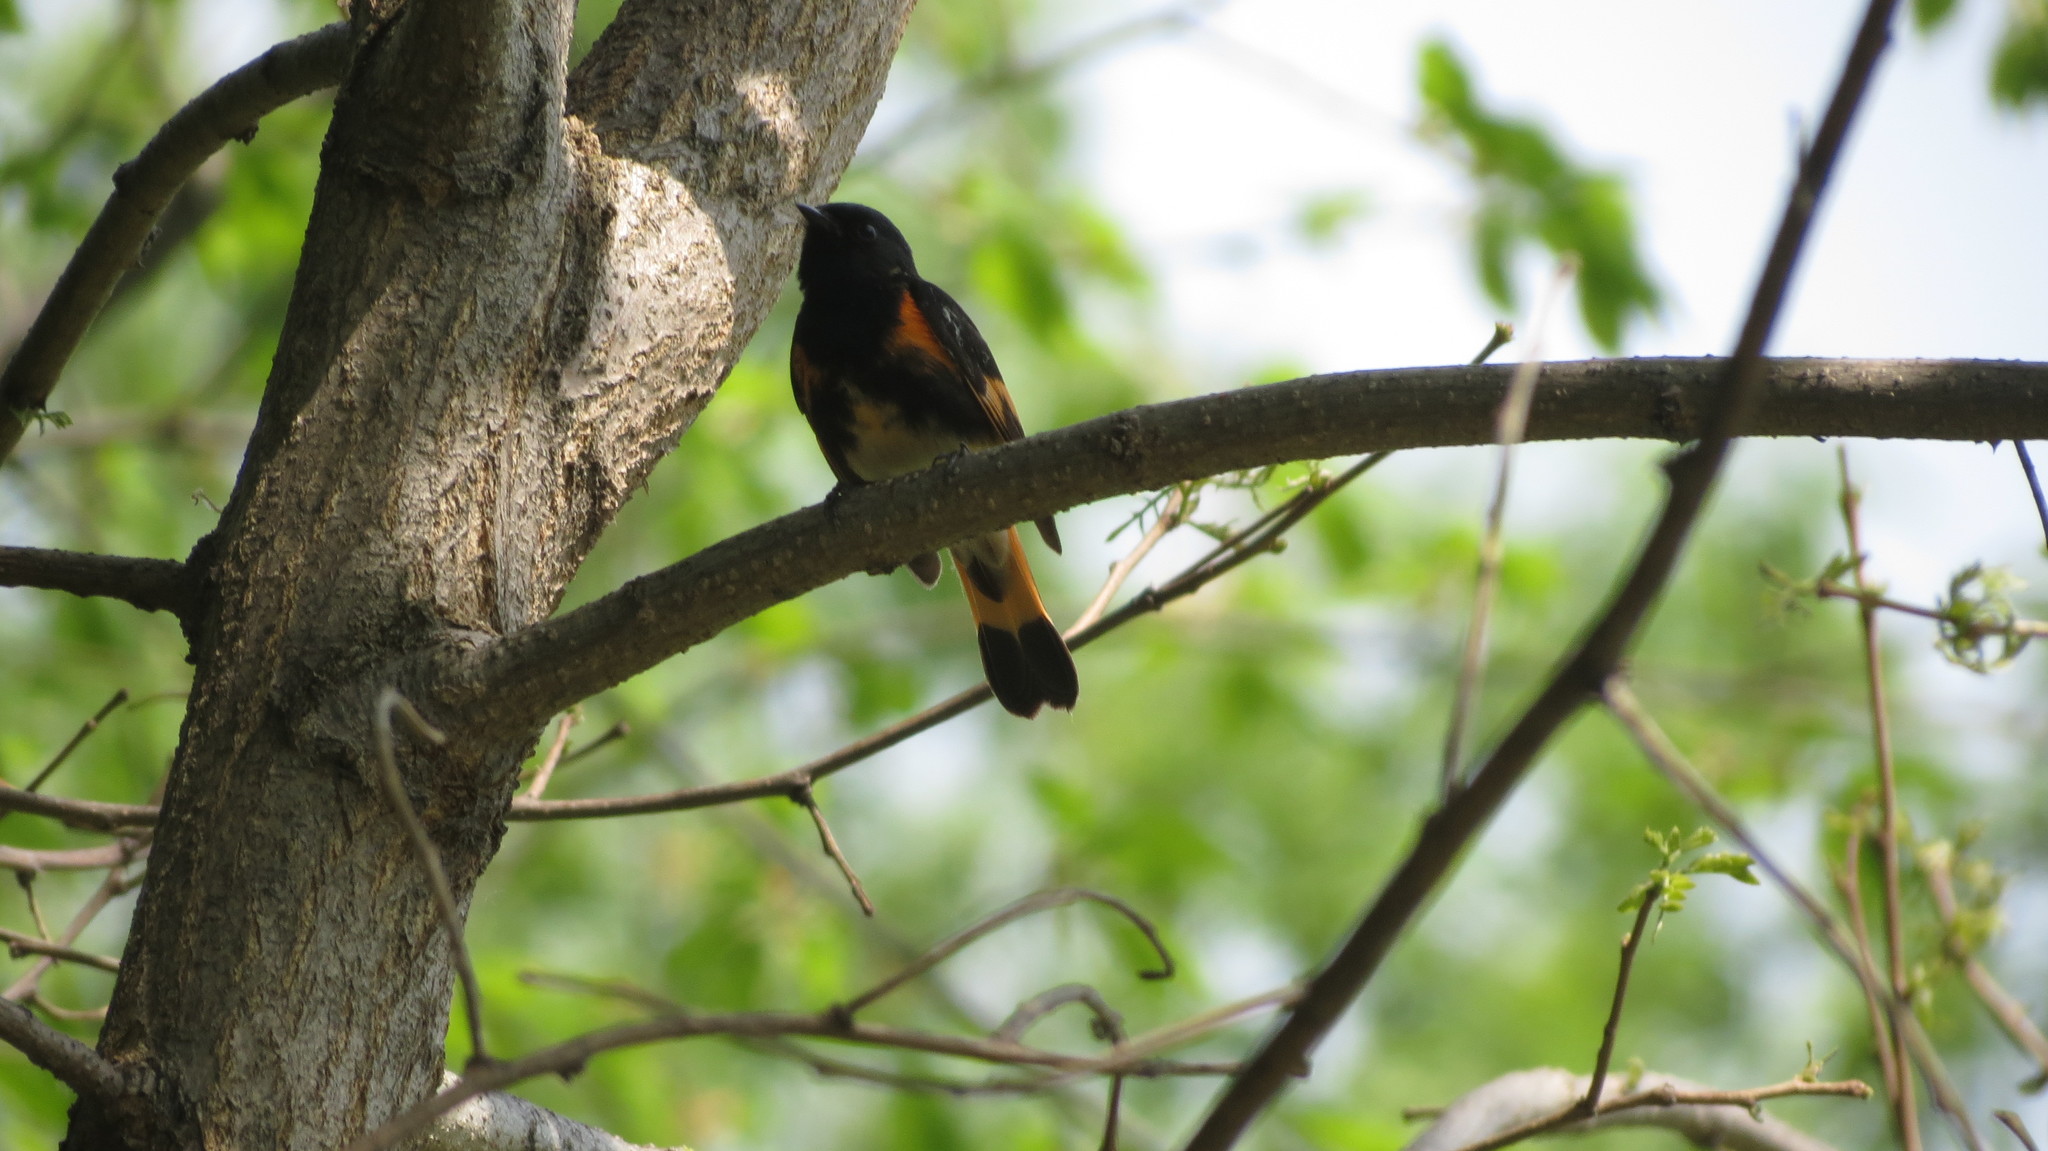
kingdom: Animalia
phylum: Chordata
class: Aves
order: Passeriformes
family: Parulidae
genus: Setophaga
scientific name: Setophaga ruticilla
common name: American redstart
